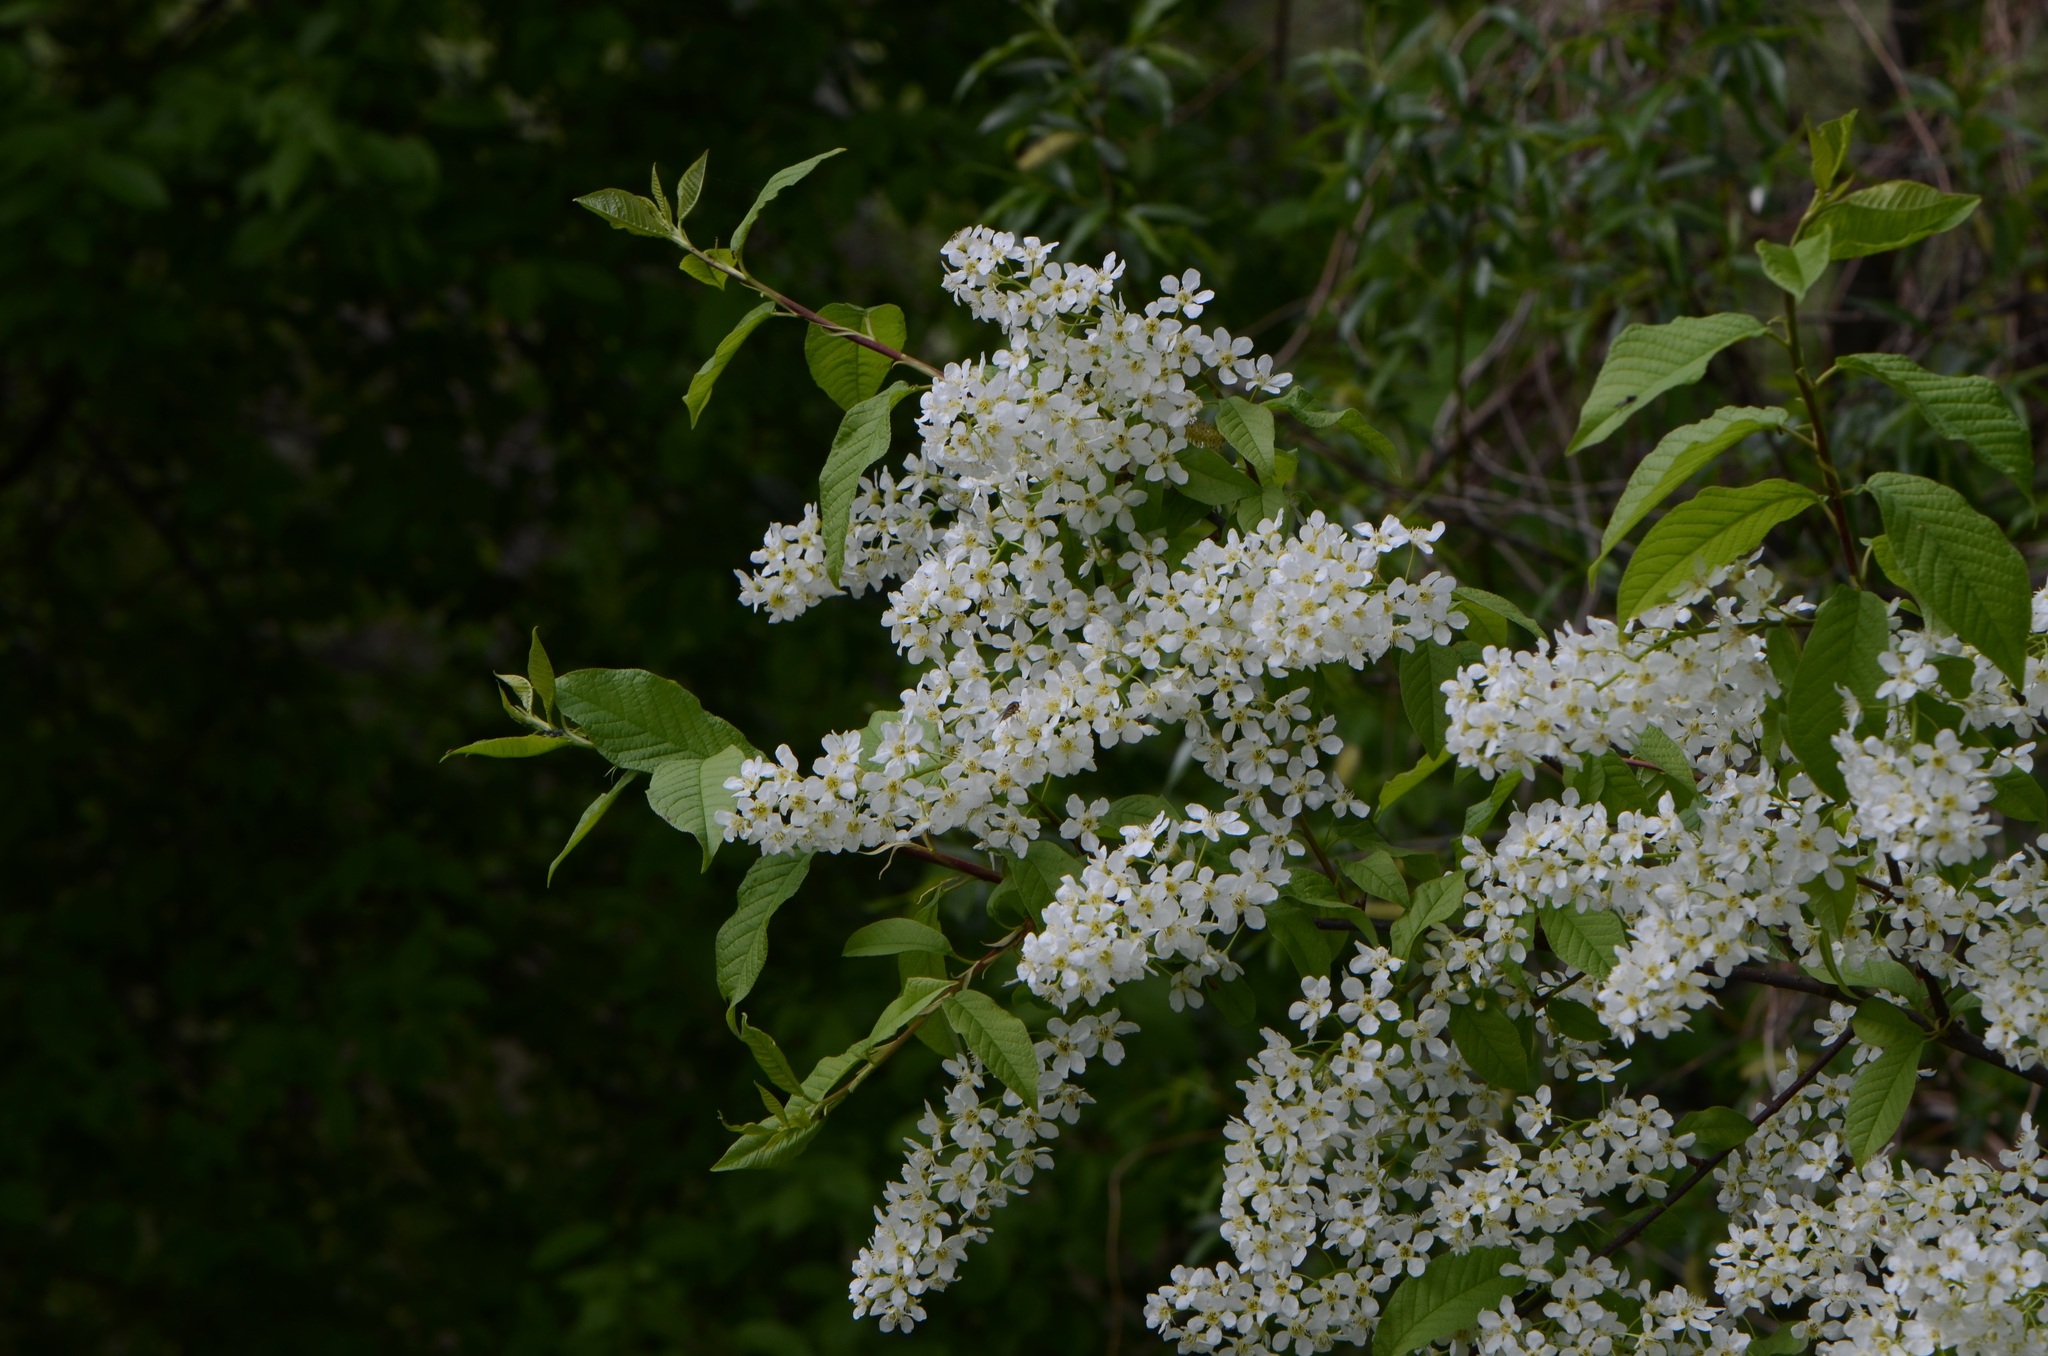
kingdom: Plantae
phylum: Tracheophyta
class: Magnoliopsida
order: Rosales
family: Rosaceae
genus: Prunus
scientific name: Prunus padus
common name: Bird cherry
